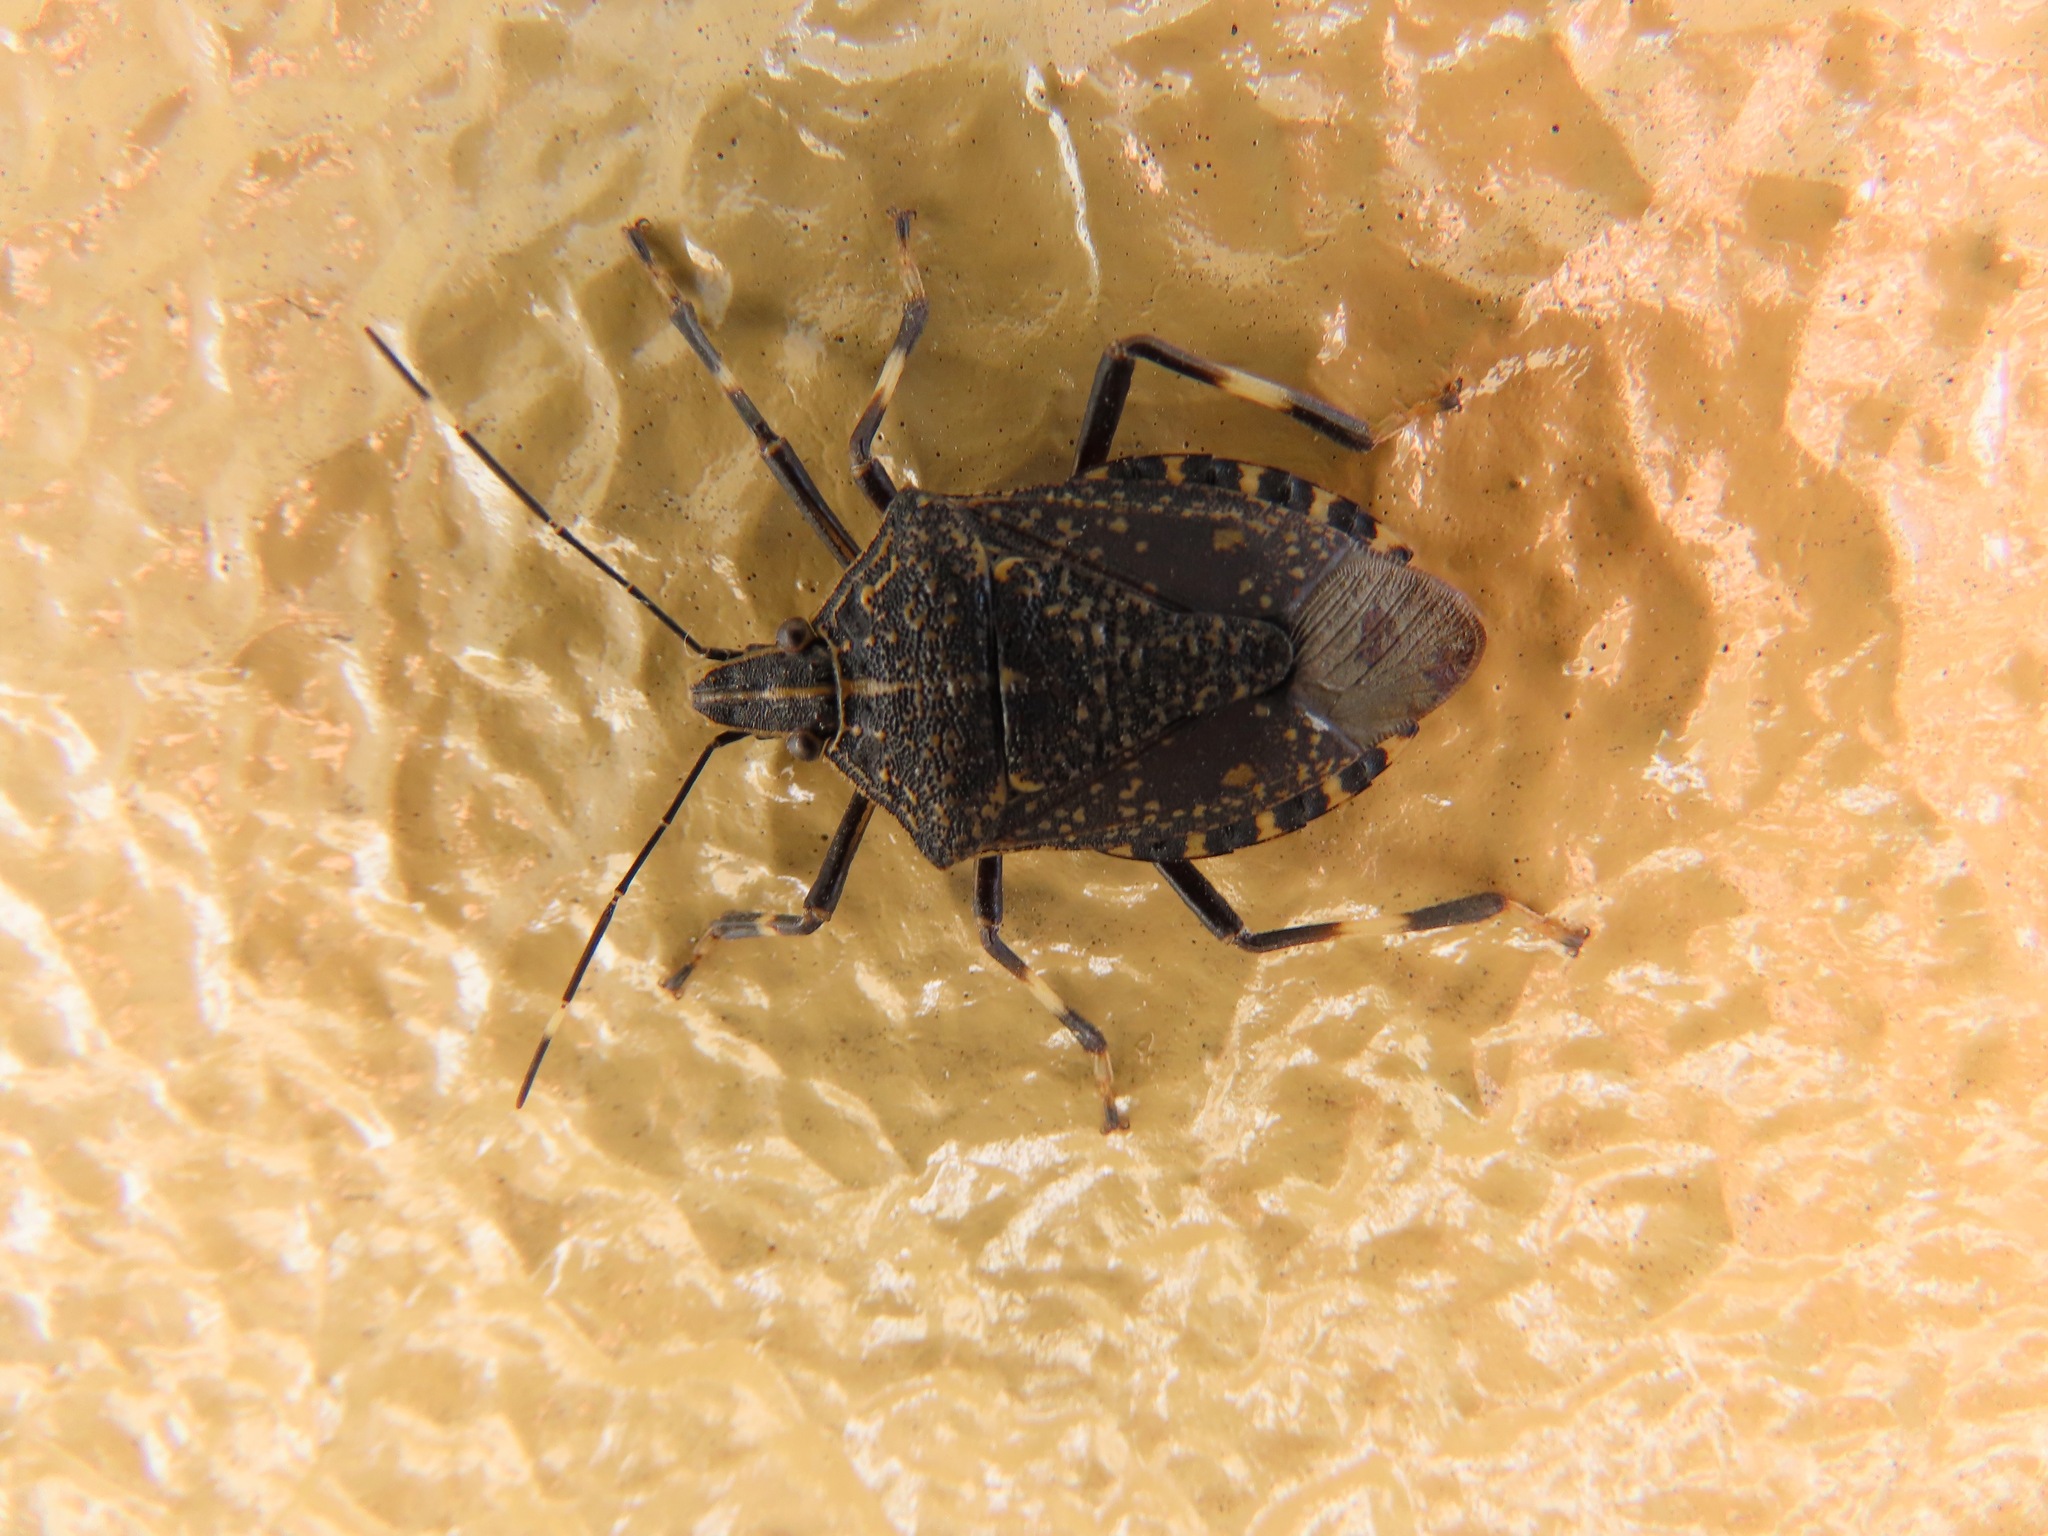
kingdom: Animalia
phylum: Arthropoda
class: Insecta
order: Hemiptera
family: Pentatomidae
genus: Erthesina
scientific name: Erthesina fullo
